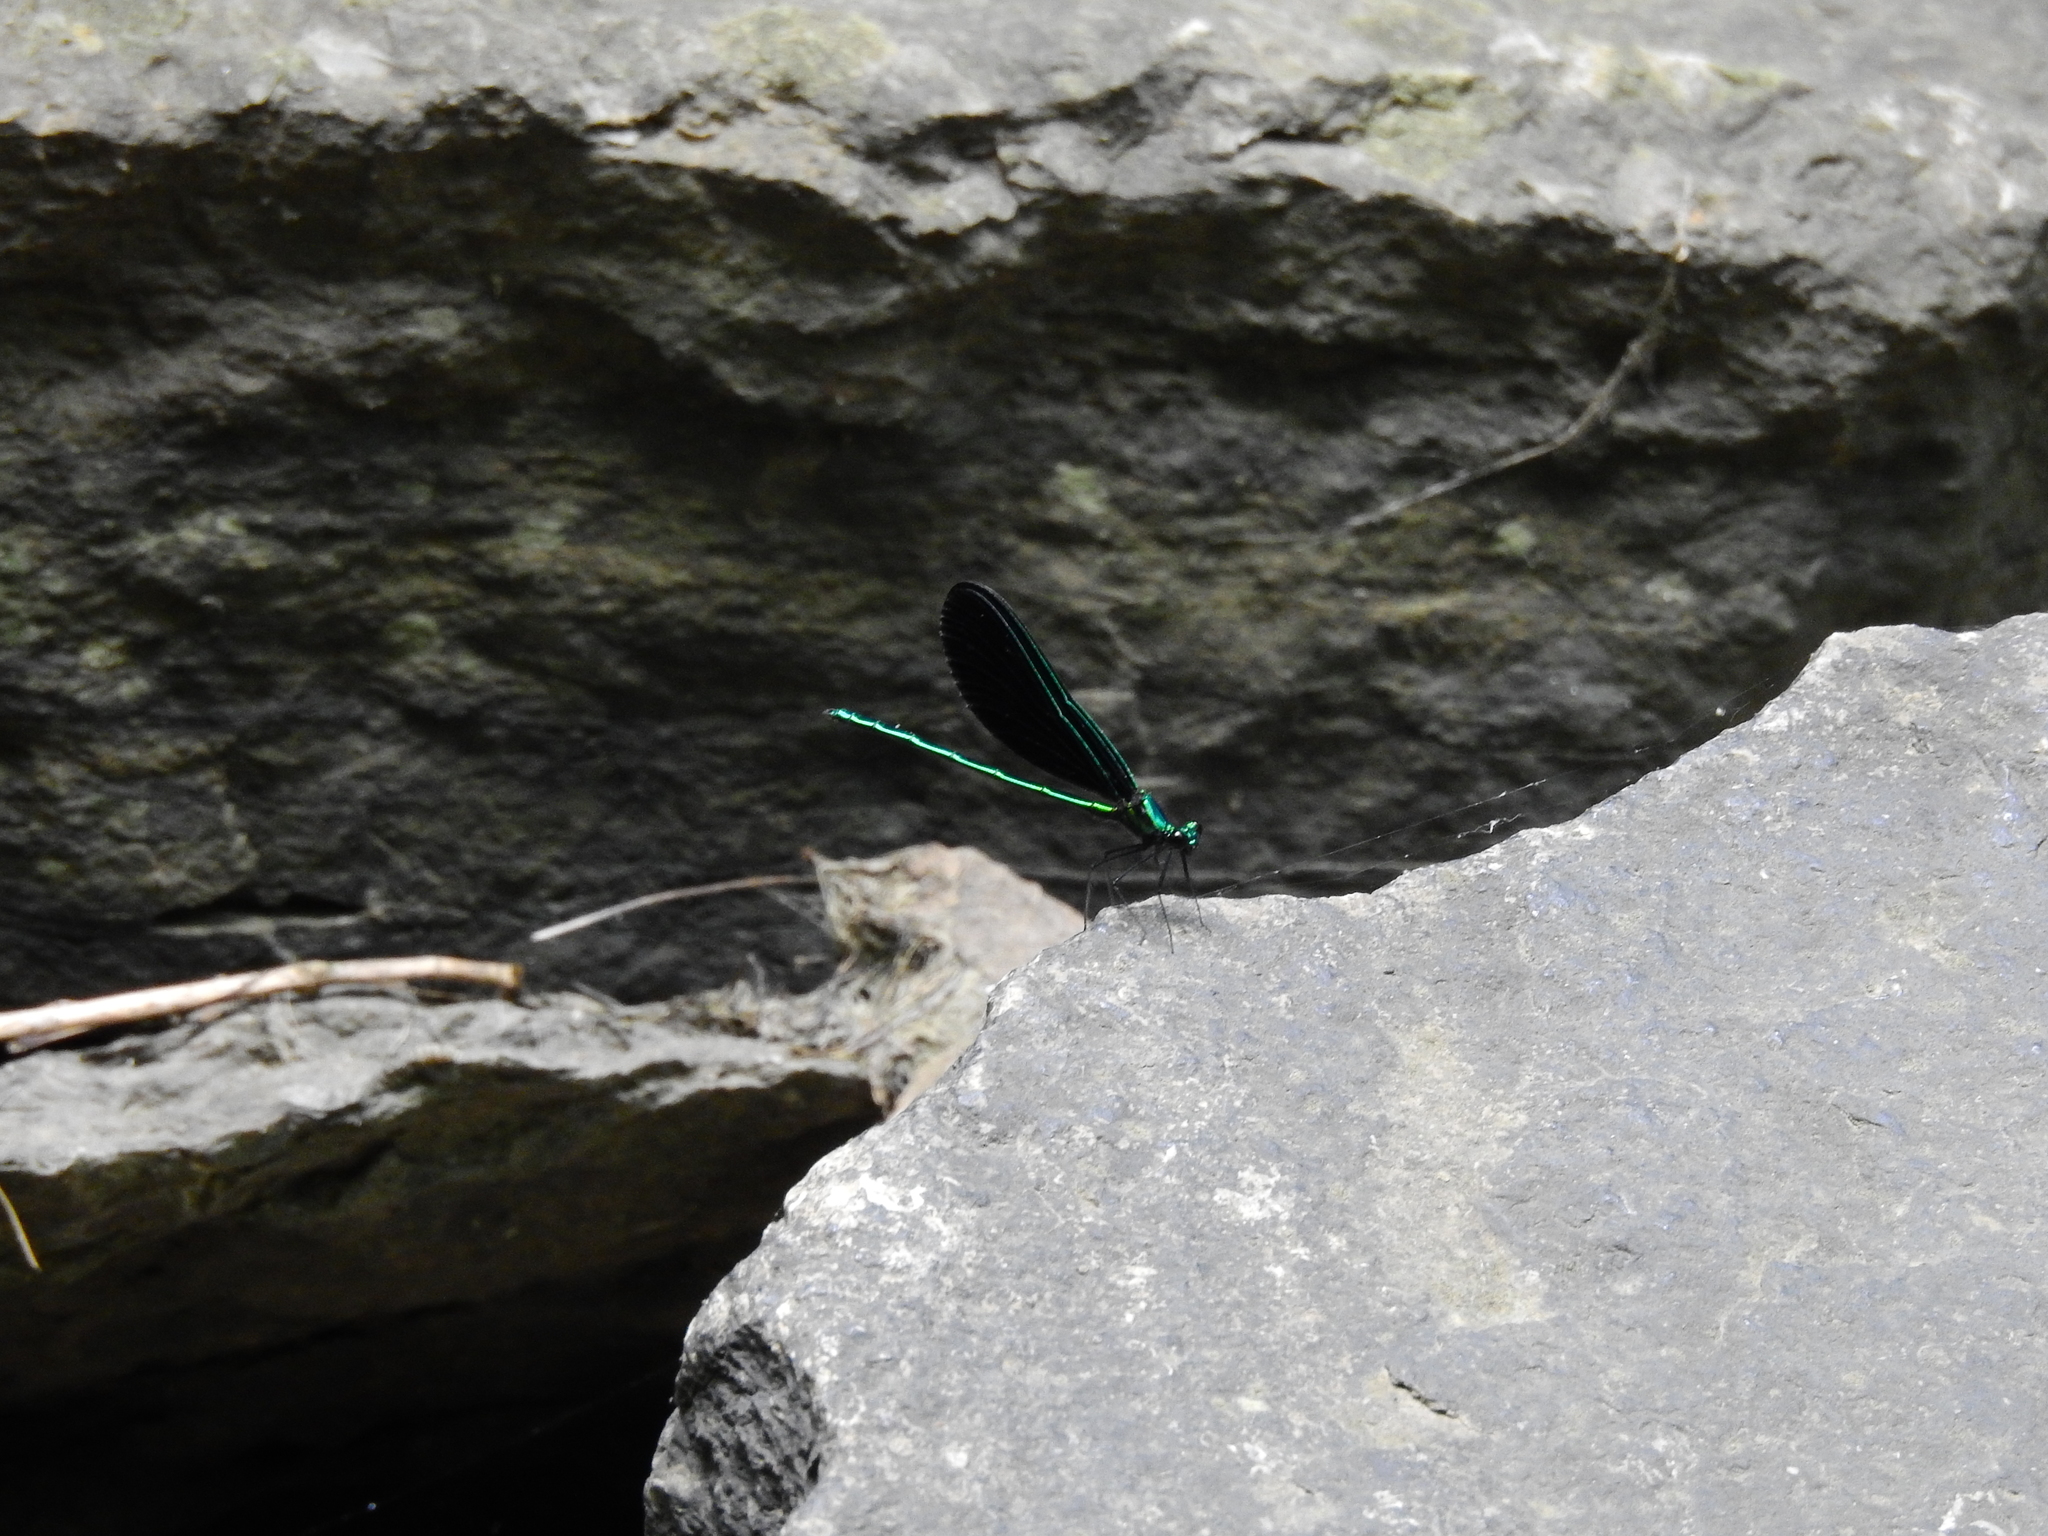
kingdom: Animalia
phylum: Arthropoda
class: Insecta
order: Odonata
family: Calopterygidae
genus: Calopteryx
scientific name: Calopteryx maculata
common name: Ebony jewelwing
